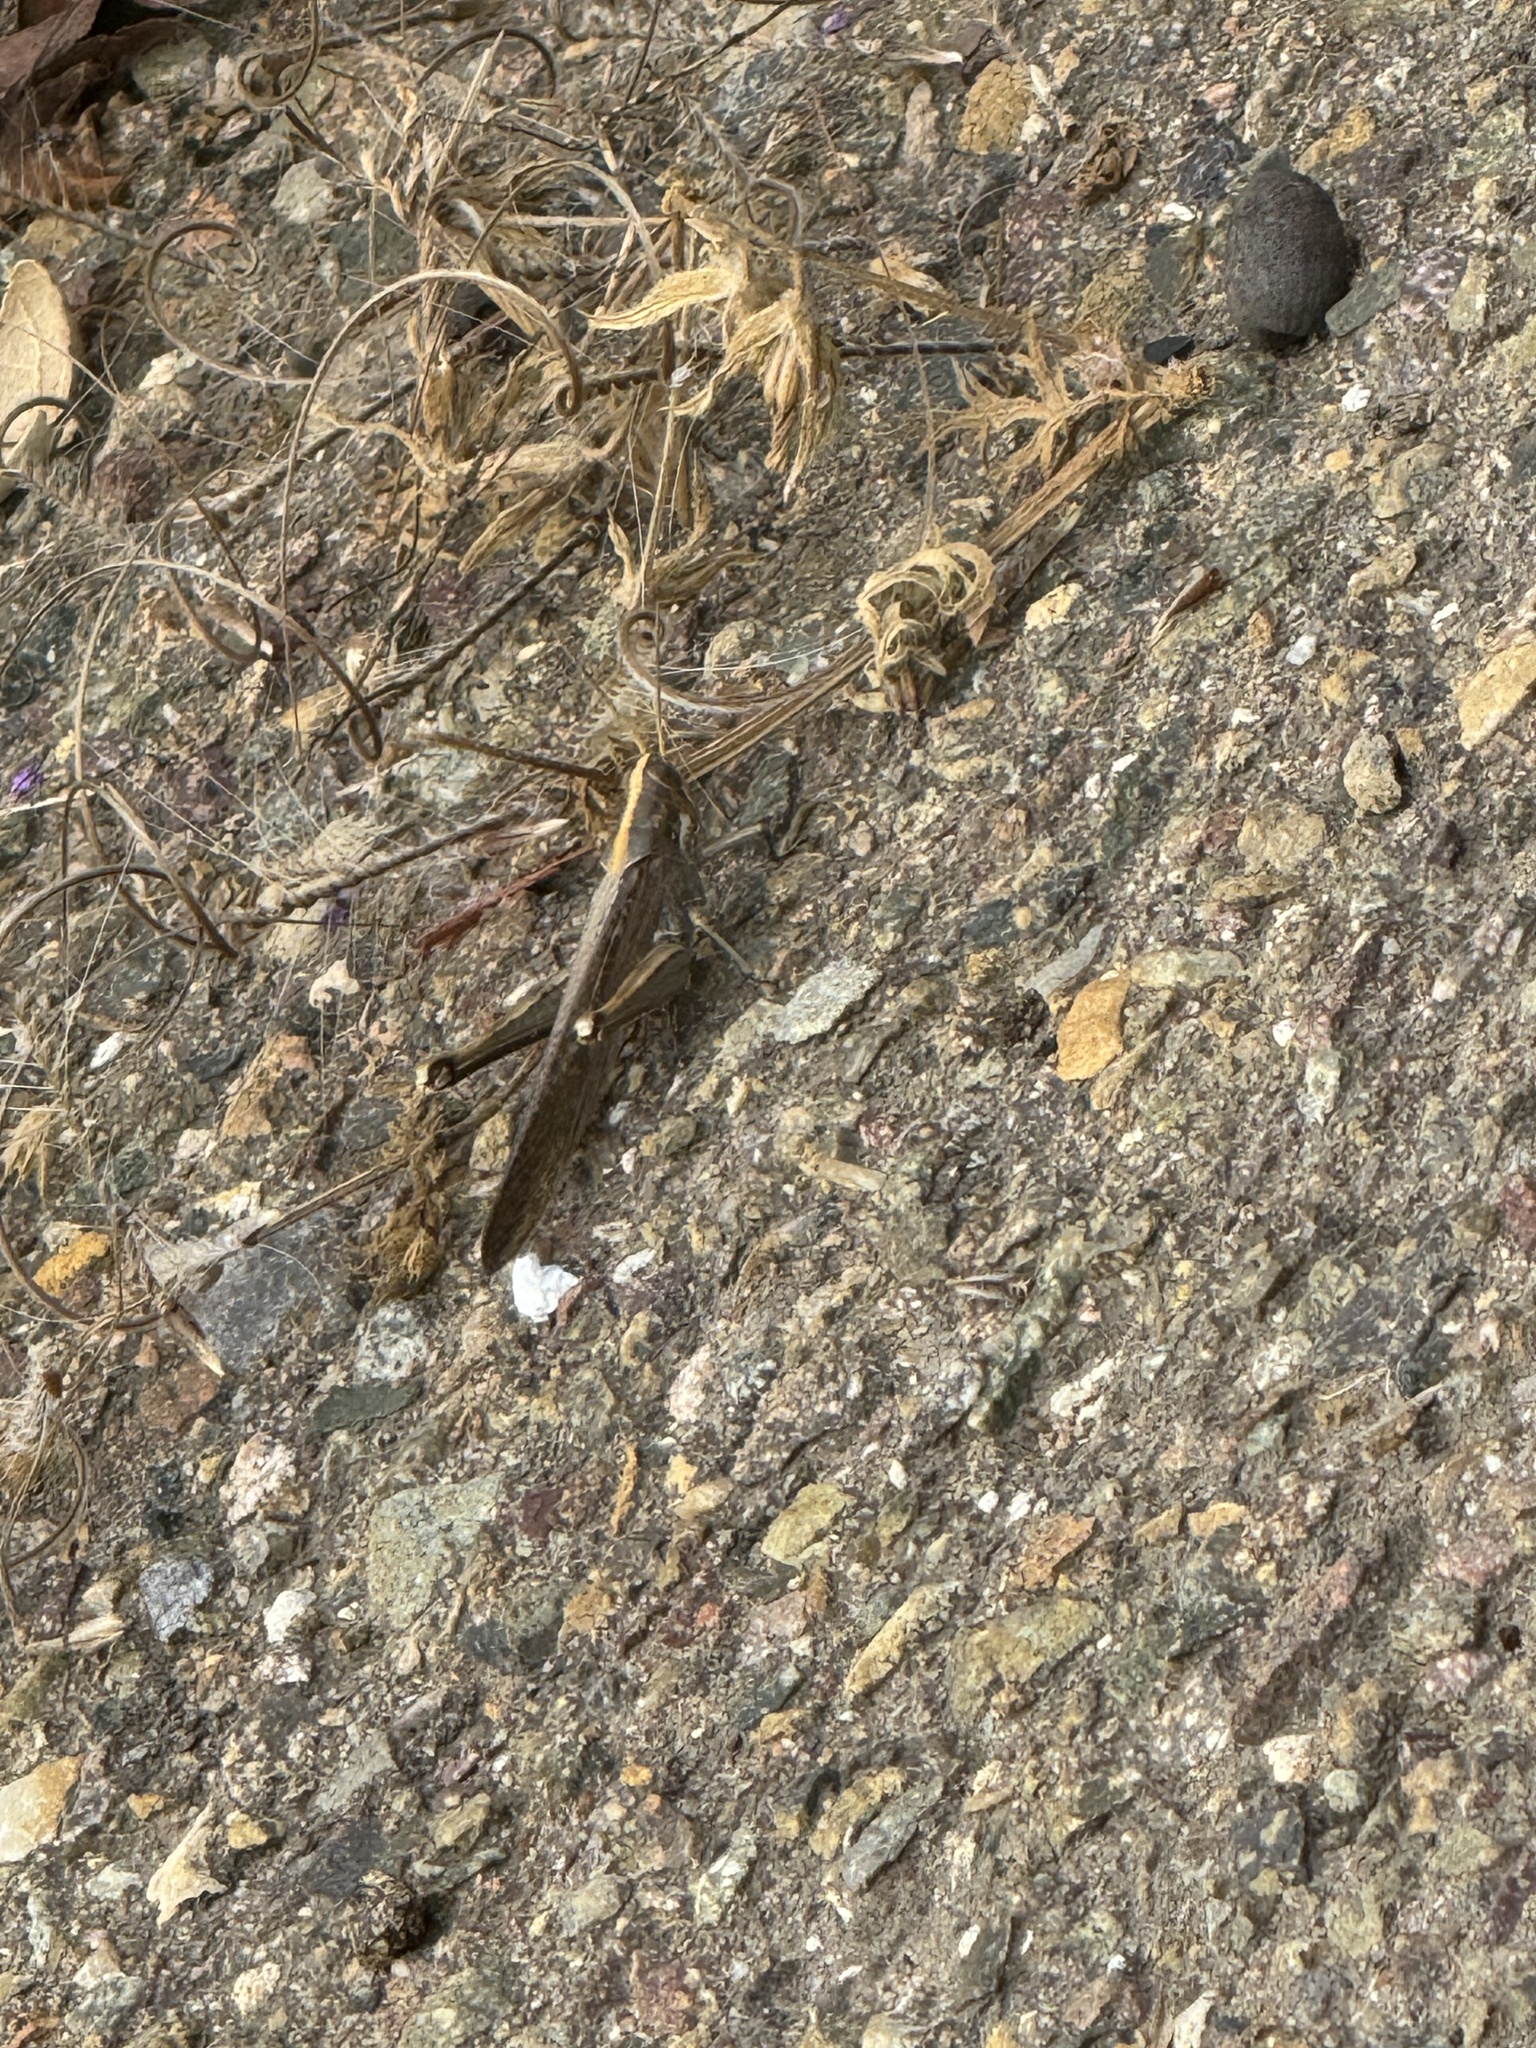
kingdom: Animalia
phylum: Arthropoda
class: Insecta
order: Orthoptera
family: Acrididae
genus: Schistocerca
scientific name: Schistocerca nitens
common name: Vagrant grasshopper
